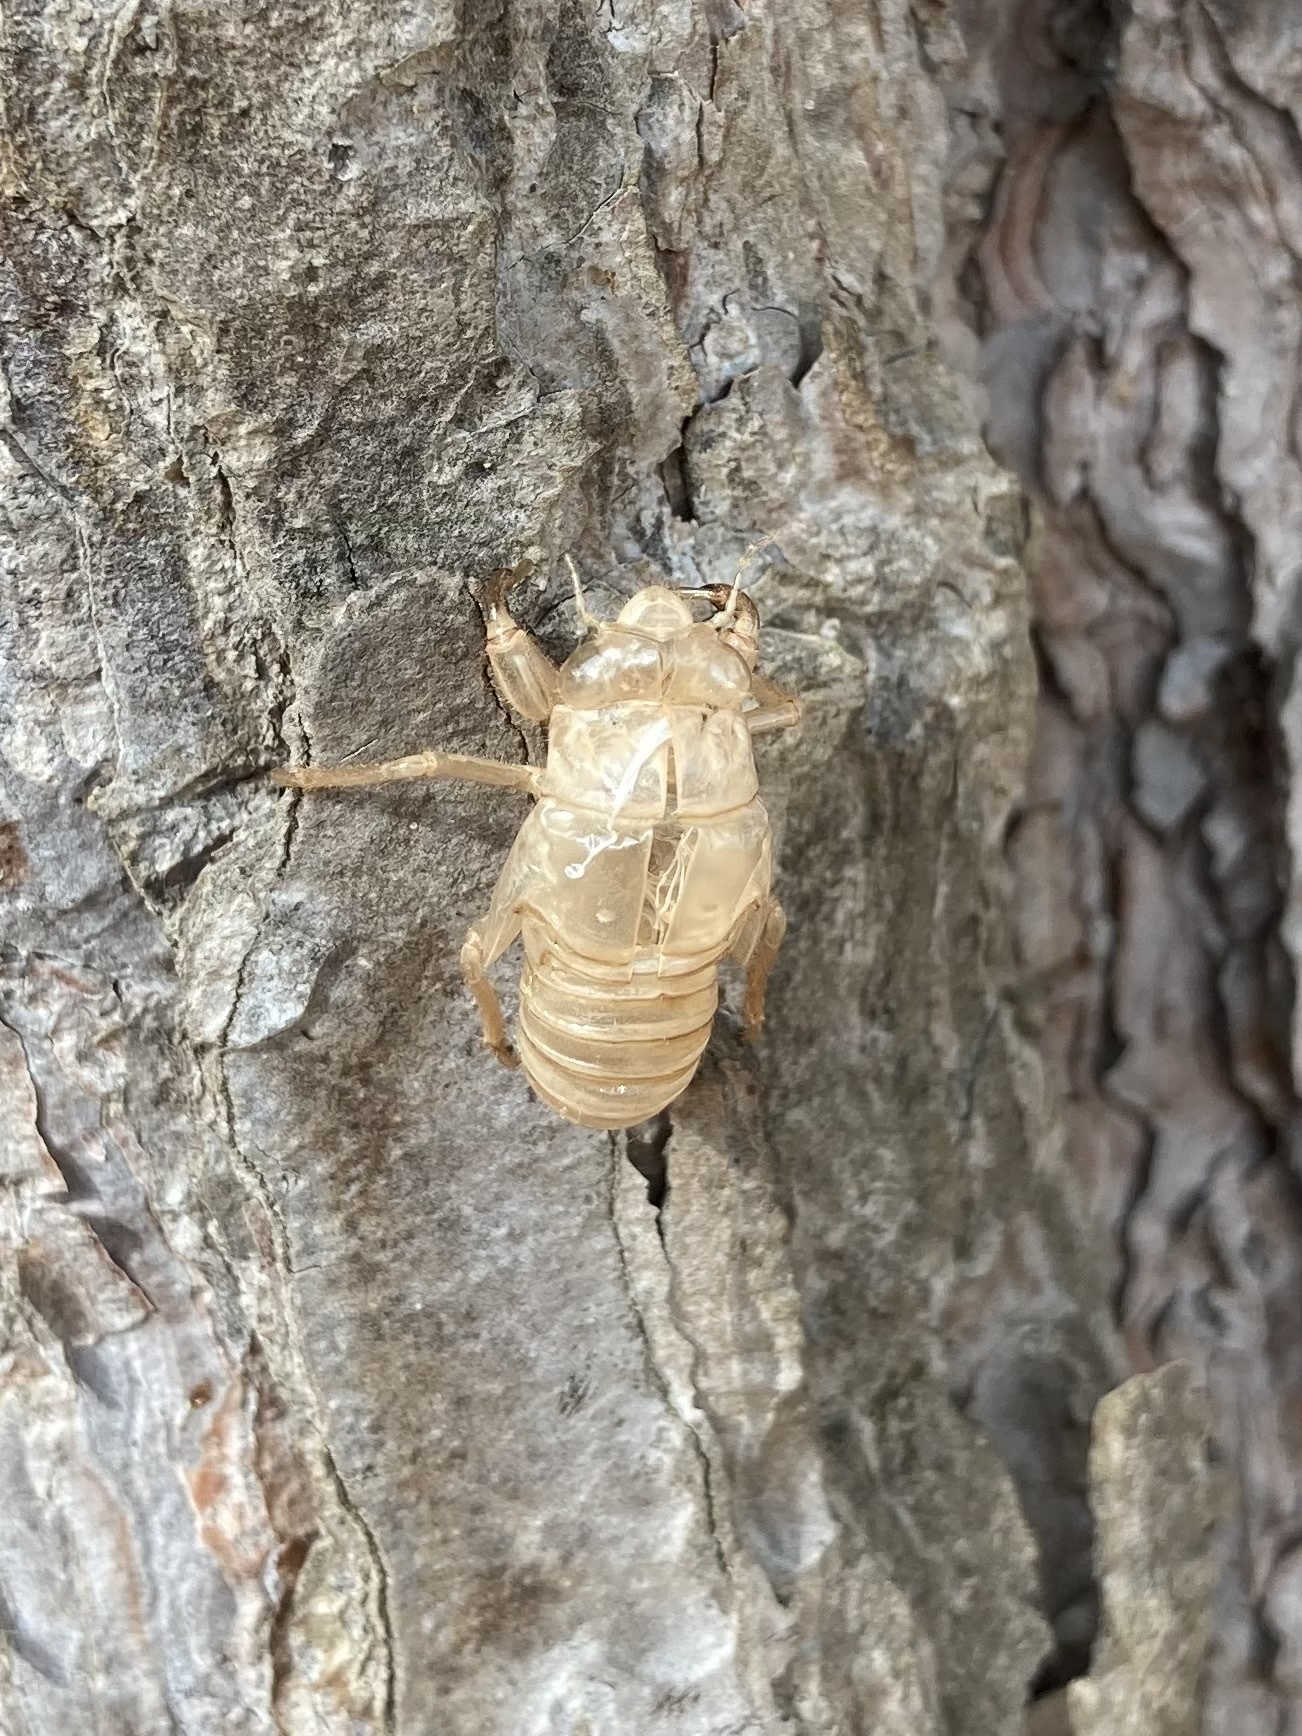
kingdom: Animalia
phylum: Arthropoda
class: Insecta
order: Hemiptera
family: Cicadidae
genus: Cicada
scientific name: Cicada orni
